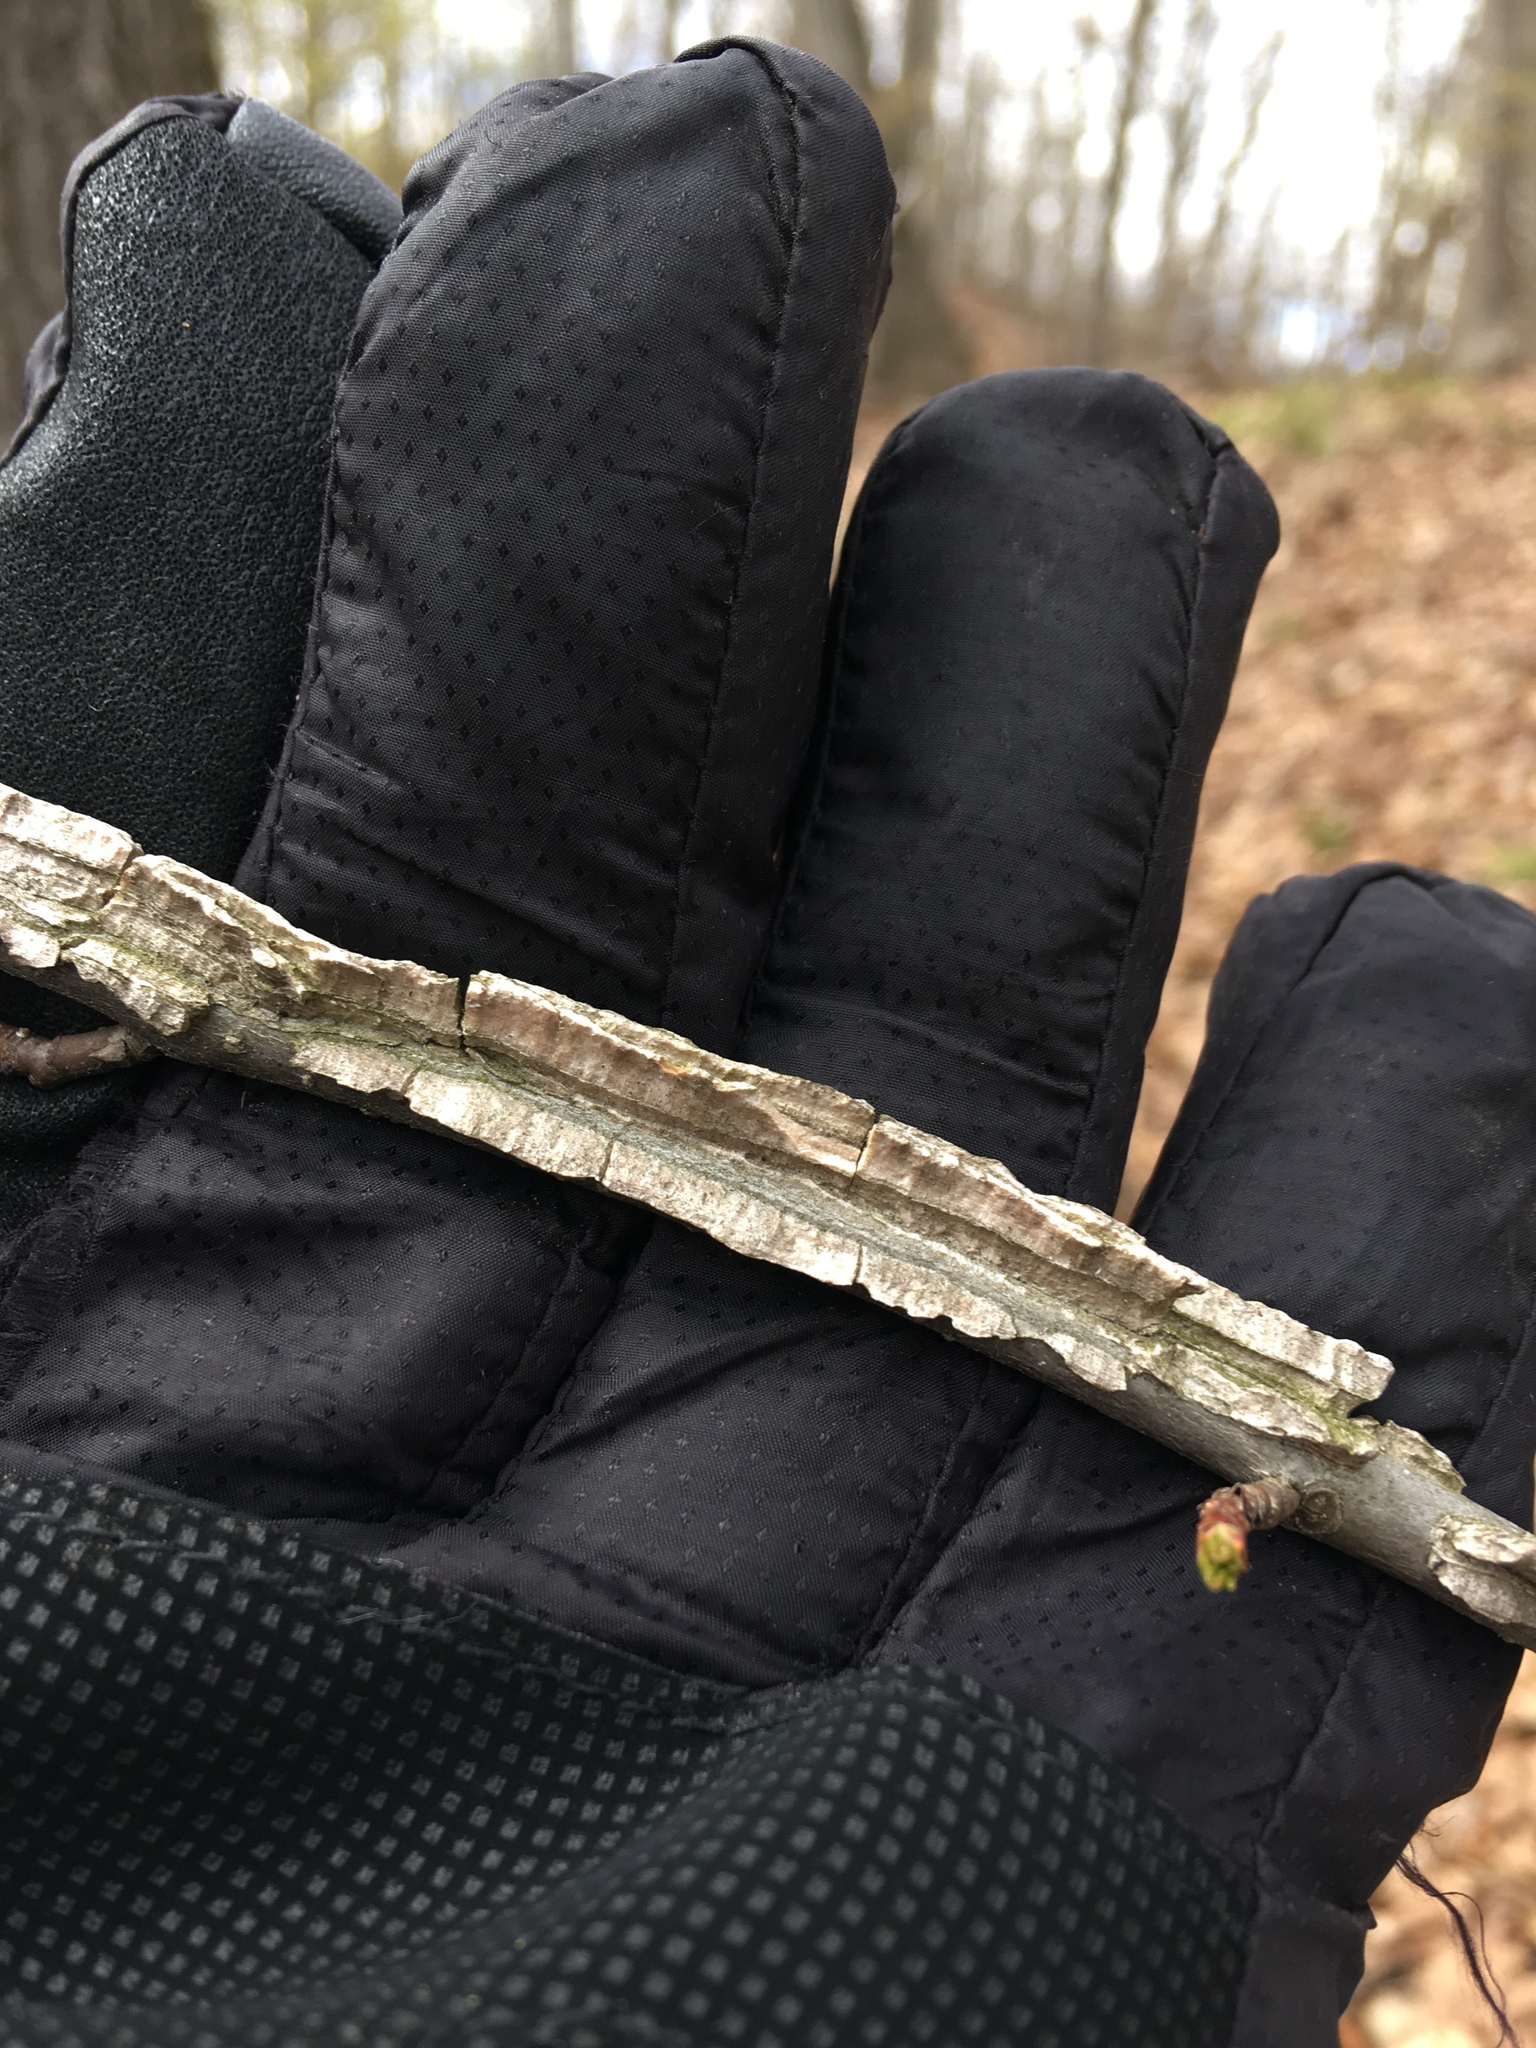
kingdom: Plantae
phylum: Tracheophyta
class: Magnoliopsida
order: Saxifragales
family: Altingiaceae
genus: Liquidambar
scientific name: Liquidambar styraciflua
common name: Sweet gum
